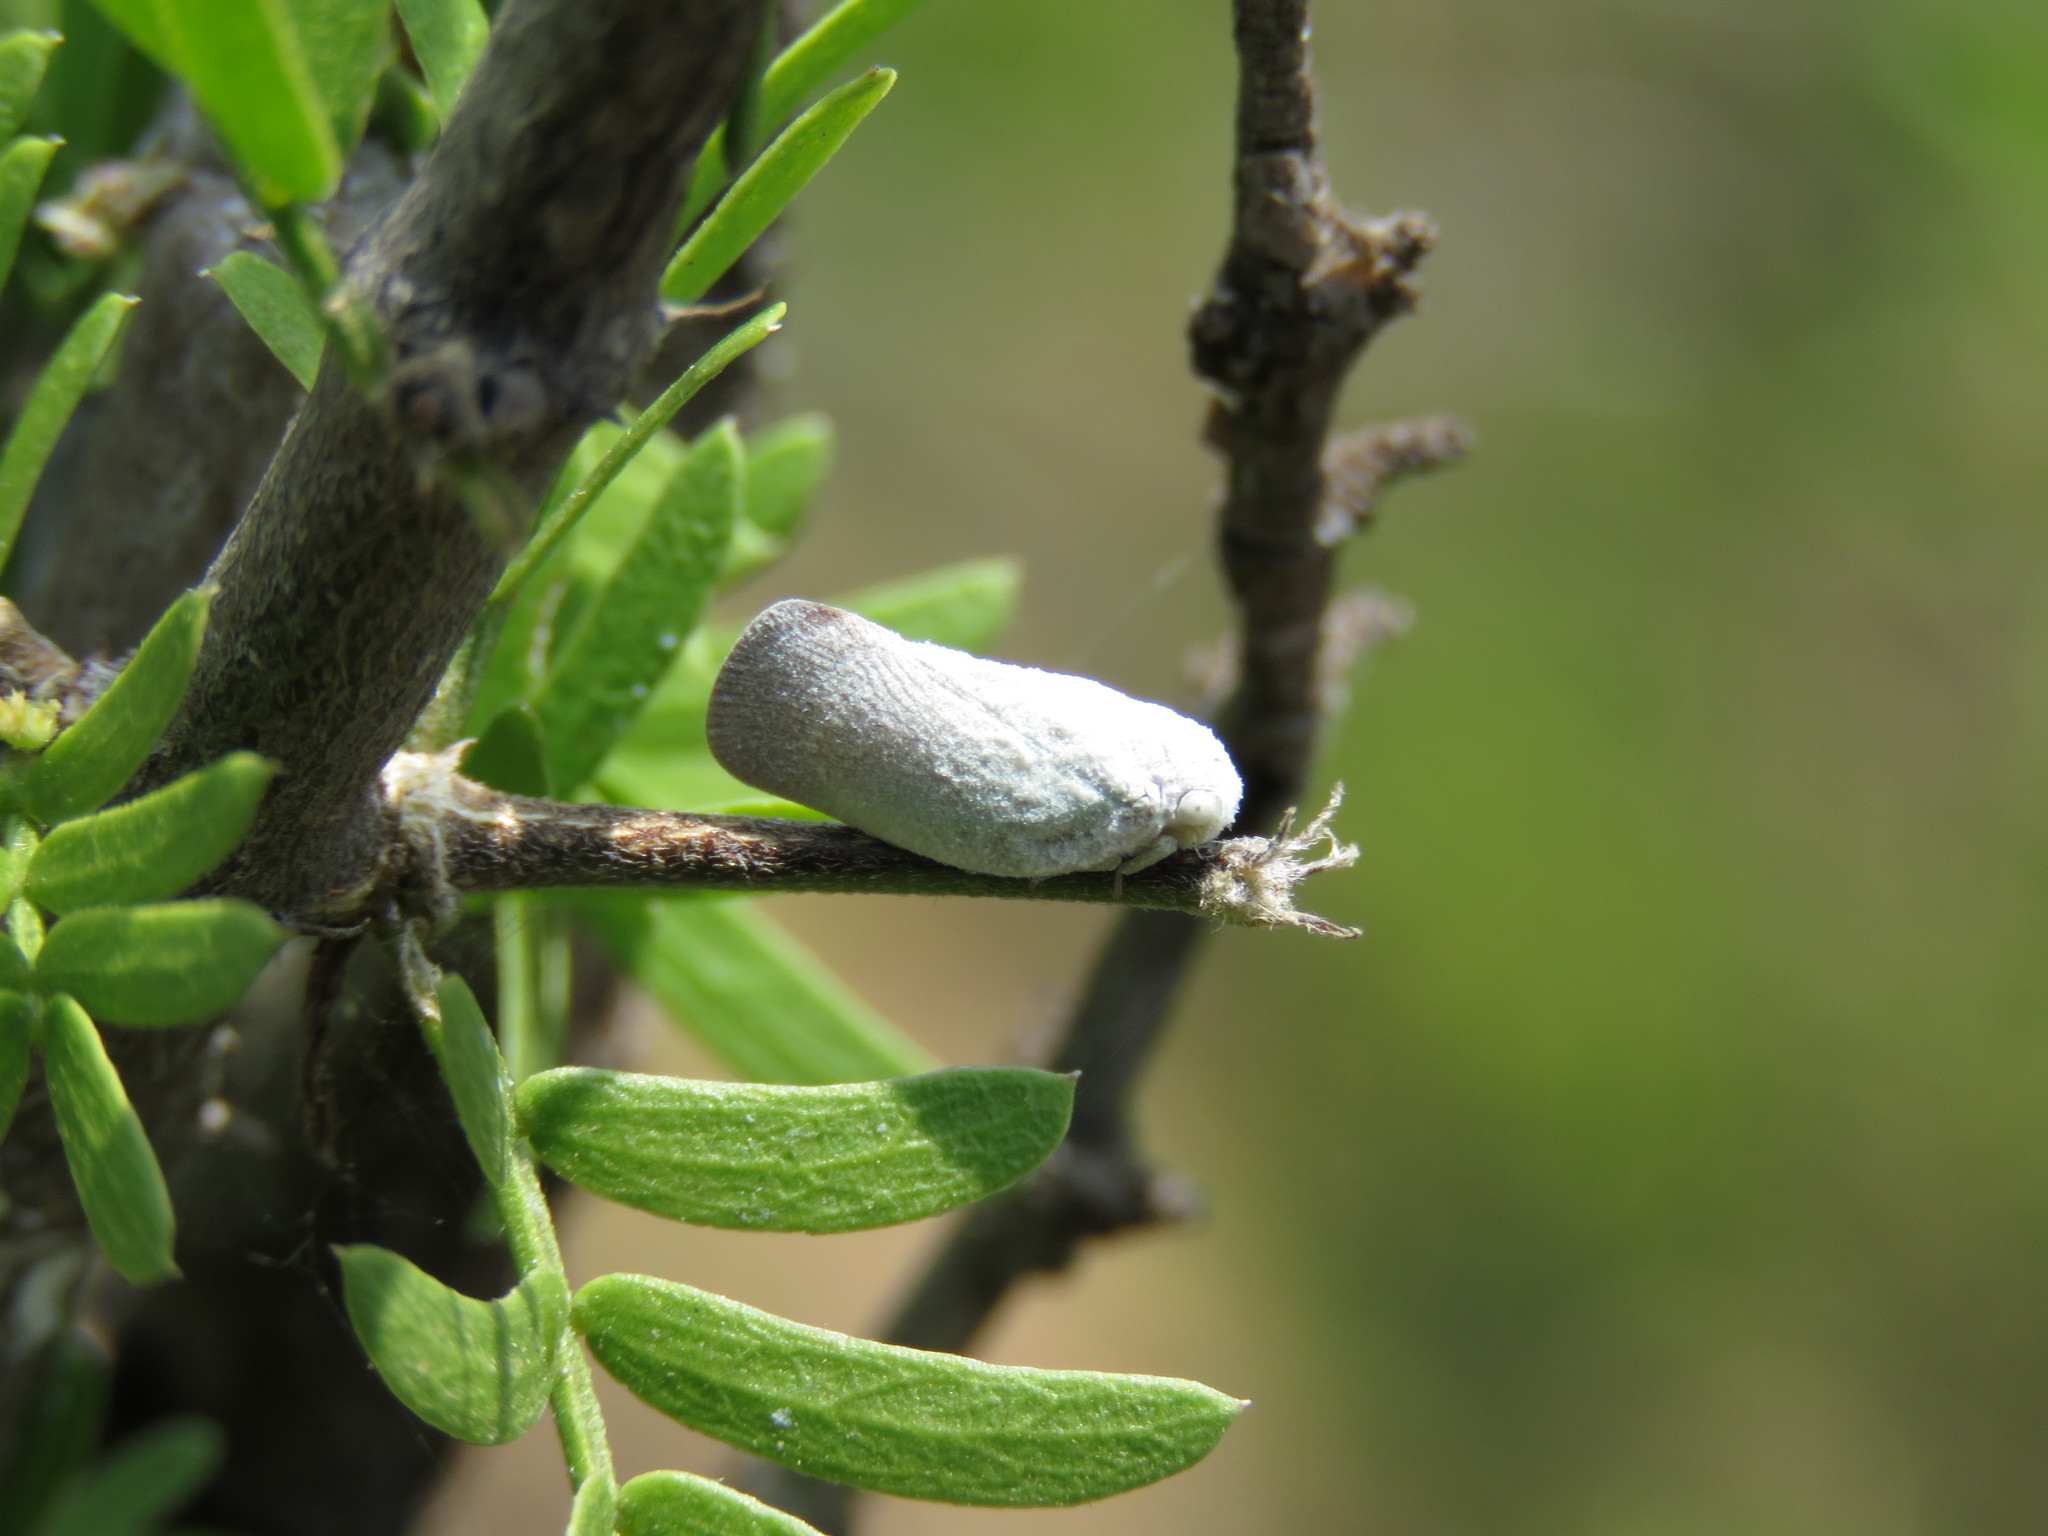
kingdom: Animalia
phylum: Arthropoda
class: Insecta
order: Hemiptera
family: Flatidae
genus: Flatormenis
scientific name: Flatormenis saucia
